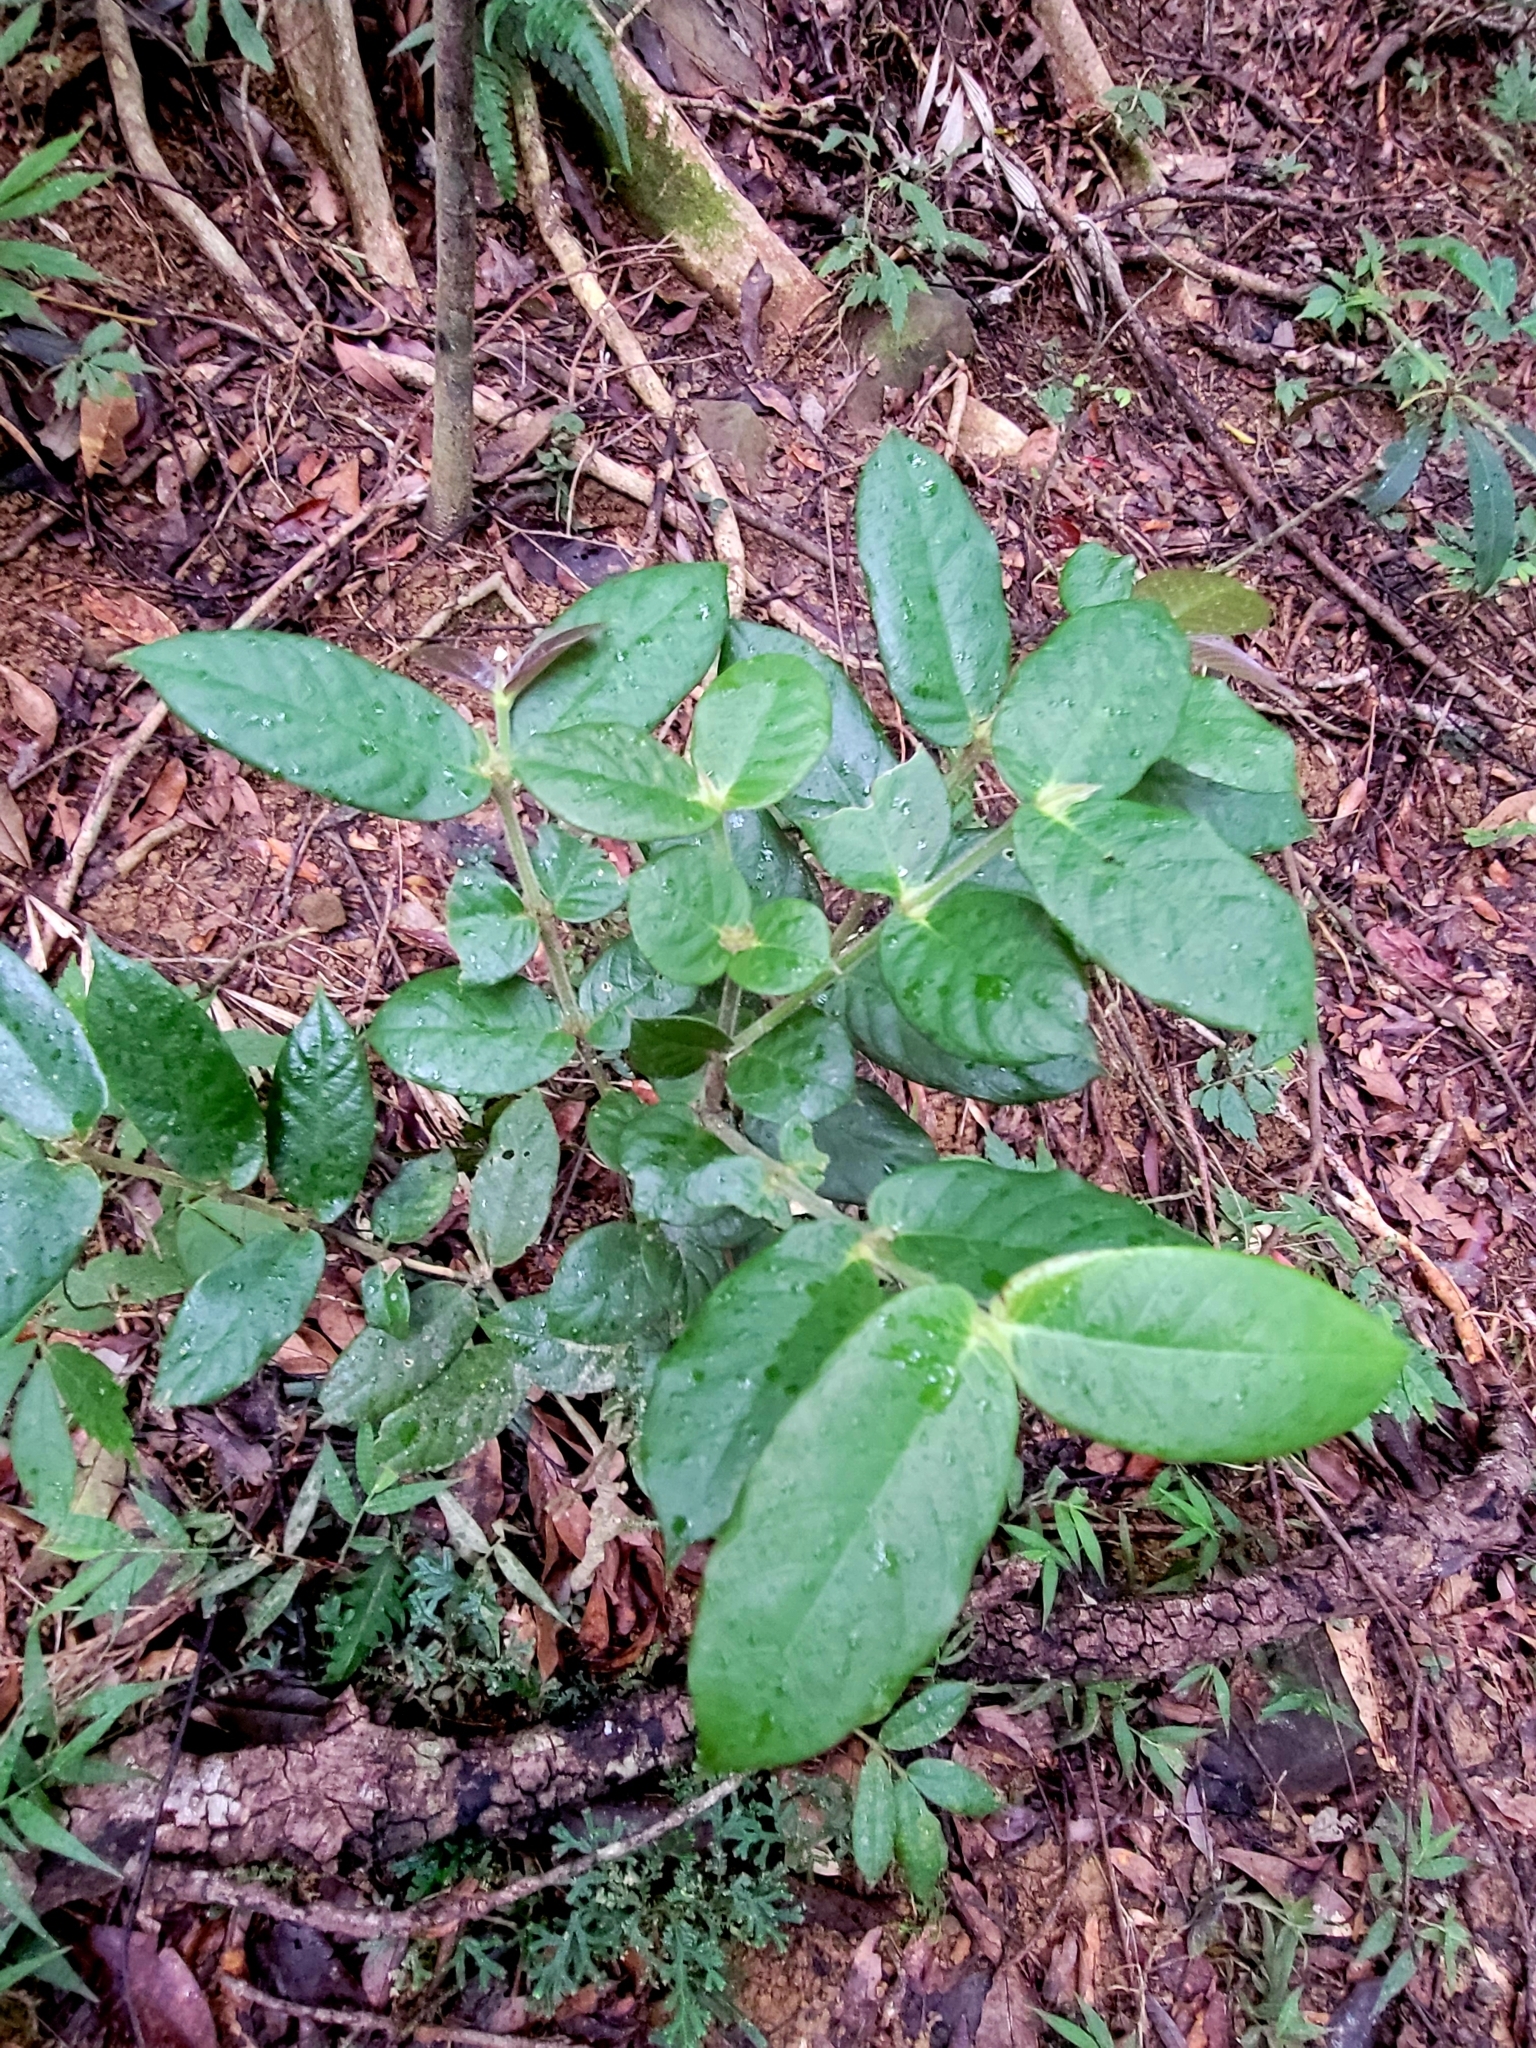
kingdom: Plantae
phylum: Tracheophyta
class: Magnoliopsida
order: Gentianales
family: Rubiaceae
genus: Lasianthus
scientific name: Lasianthus attenuatus
